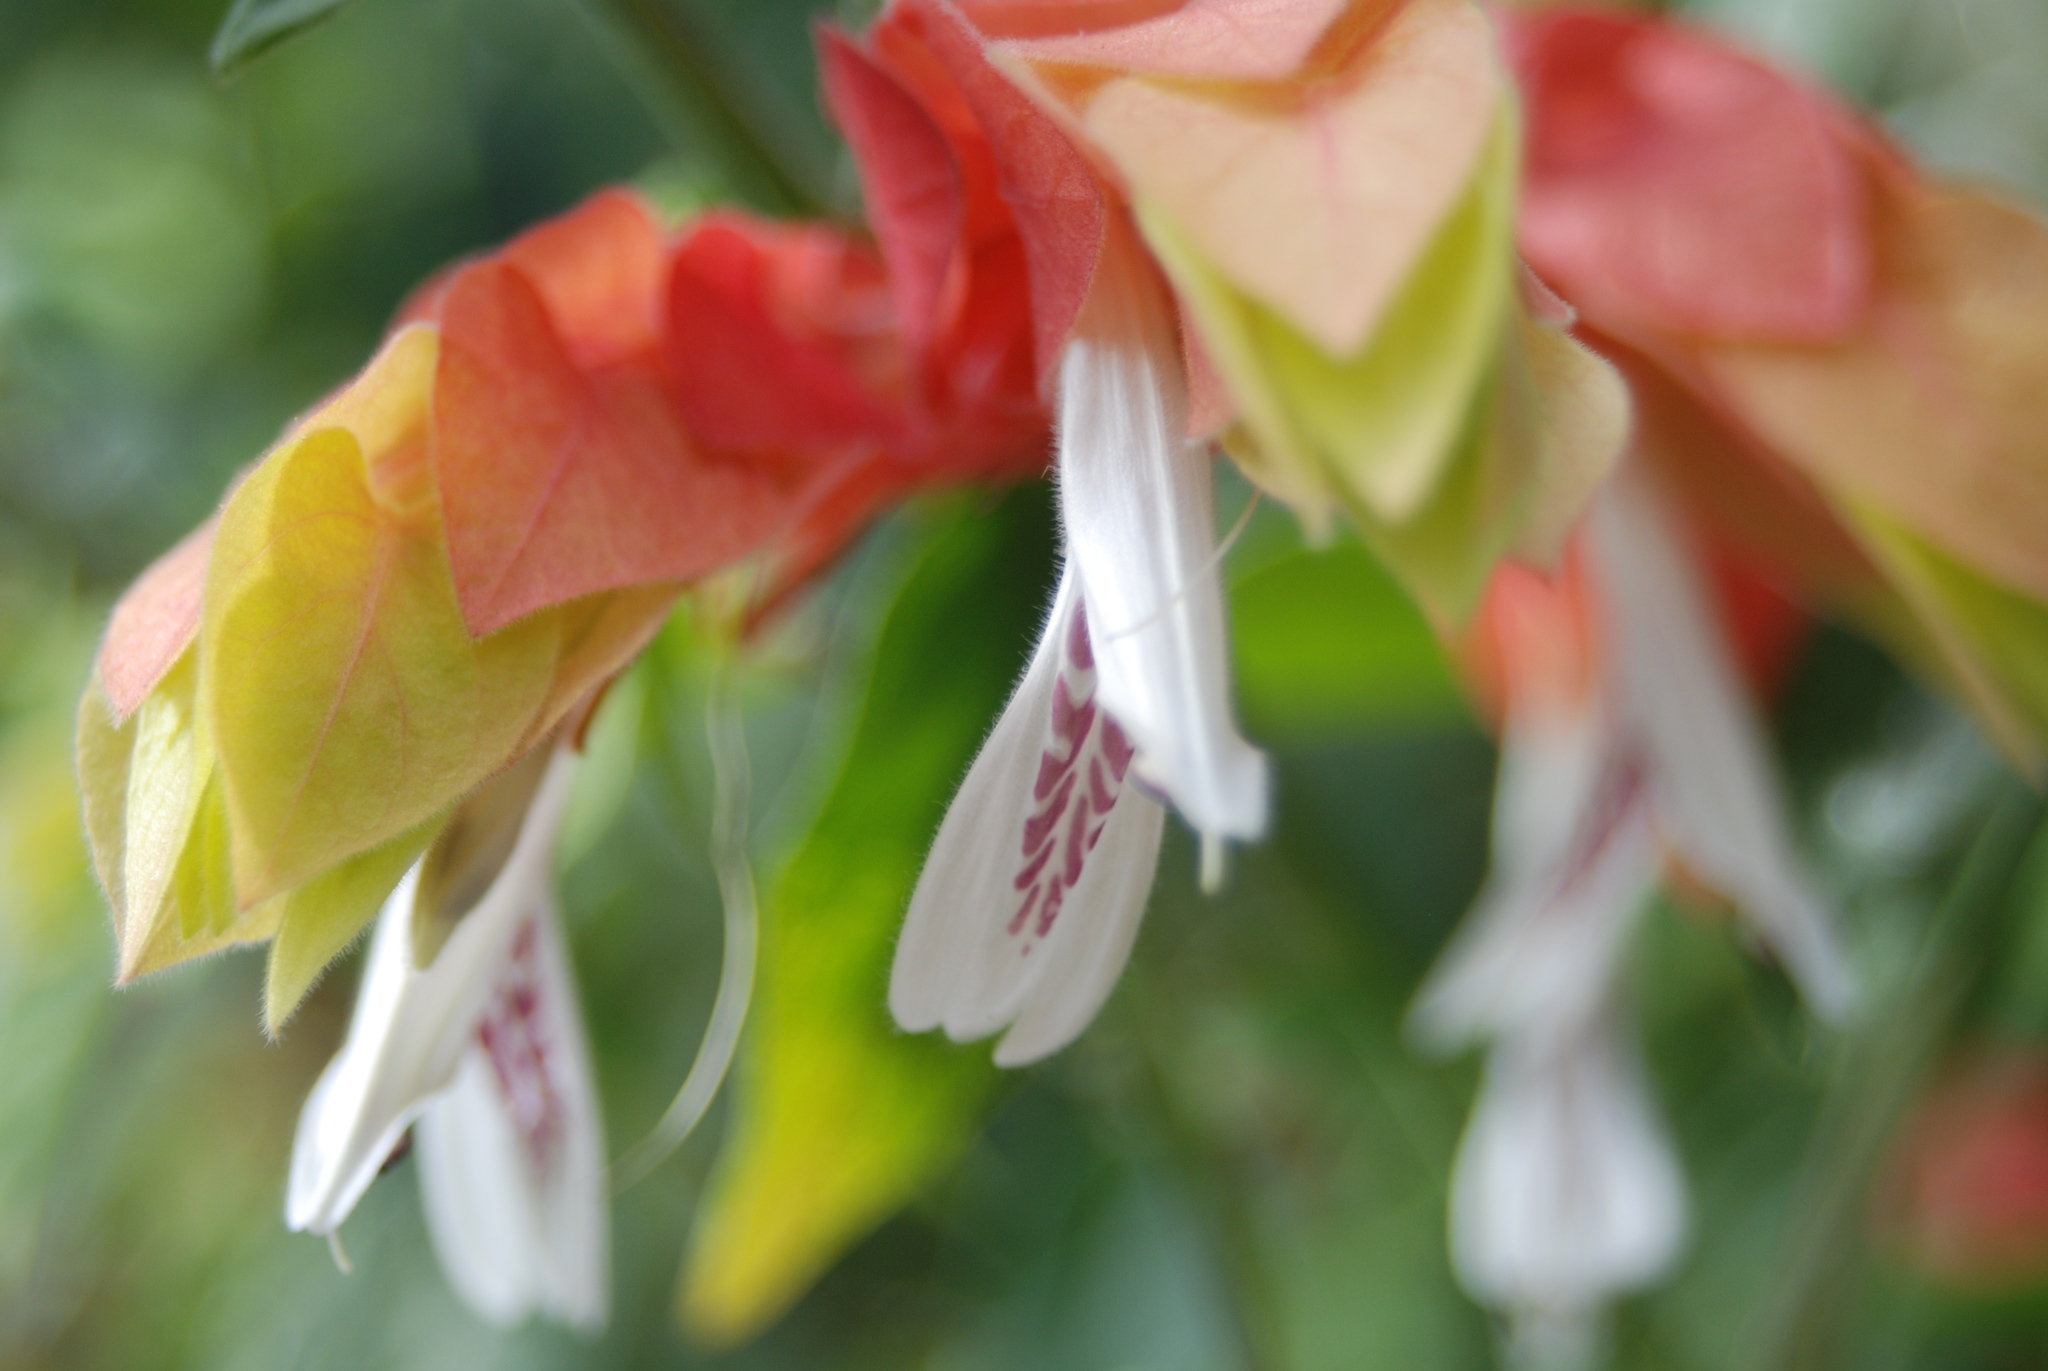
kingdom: Plantae
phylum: Tracheophyta
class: Magnoliopsida
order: Lamiales
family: Acanthaceae
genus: Justicia
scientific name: Justicia brandegeeana
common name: Shrimpplant
